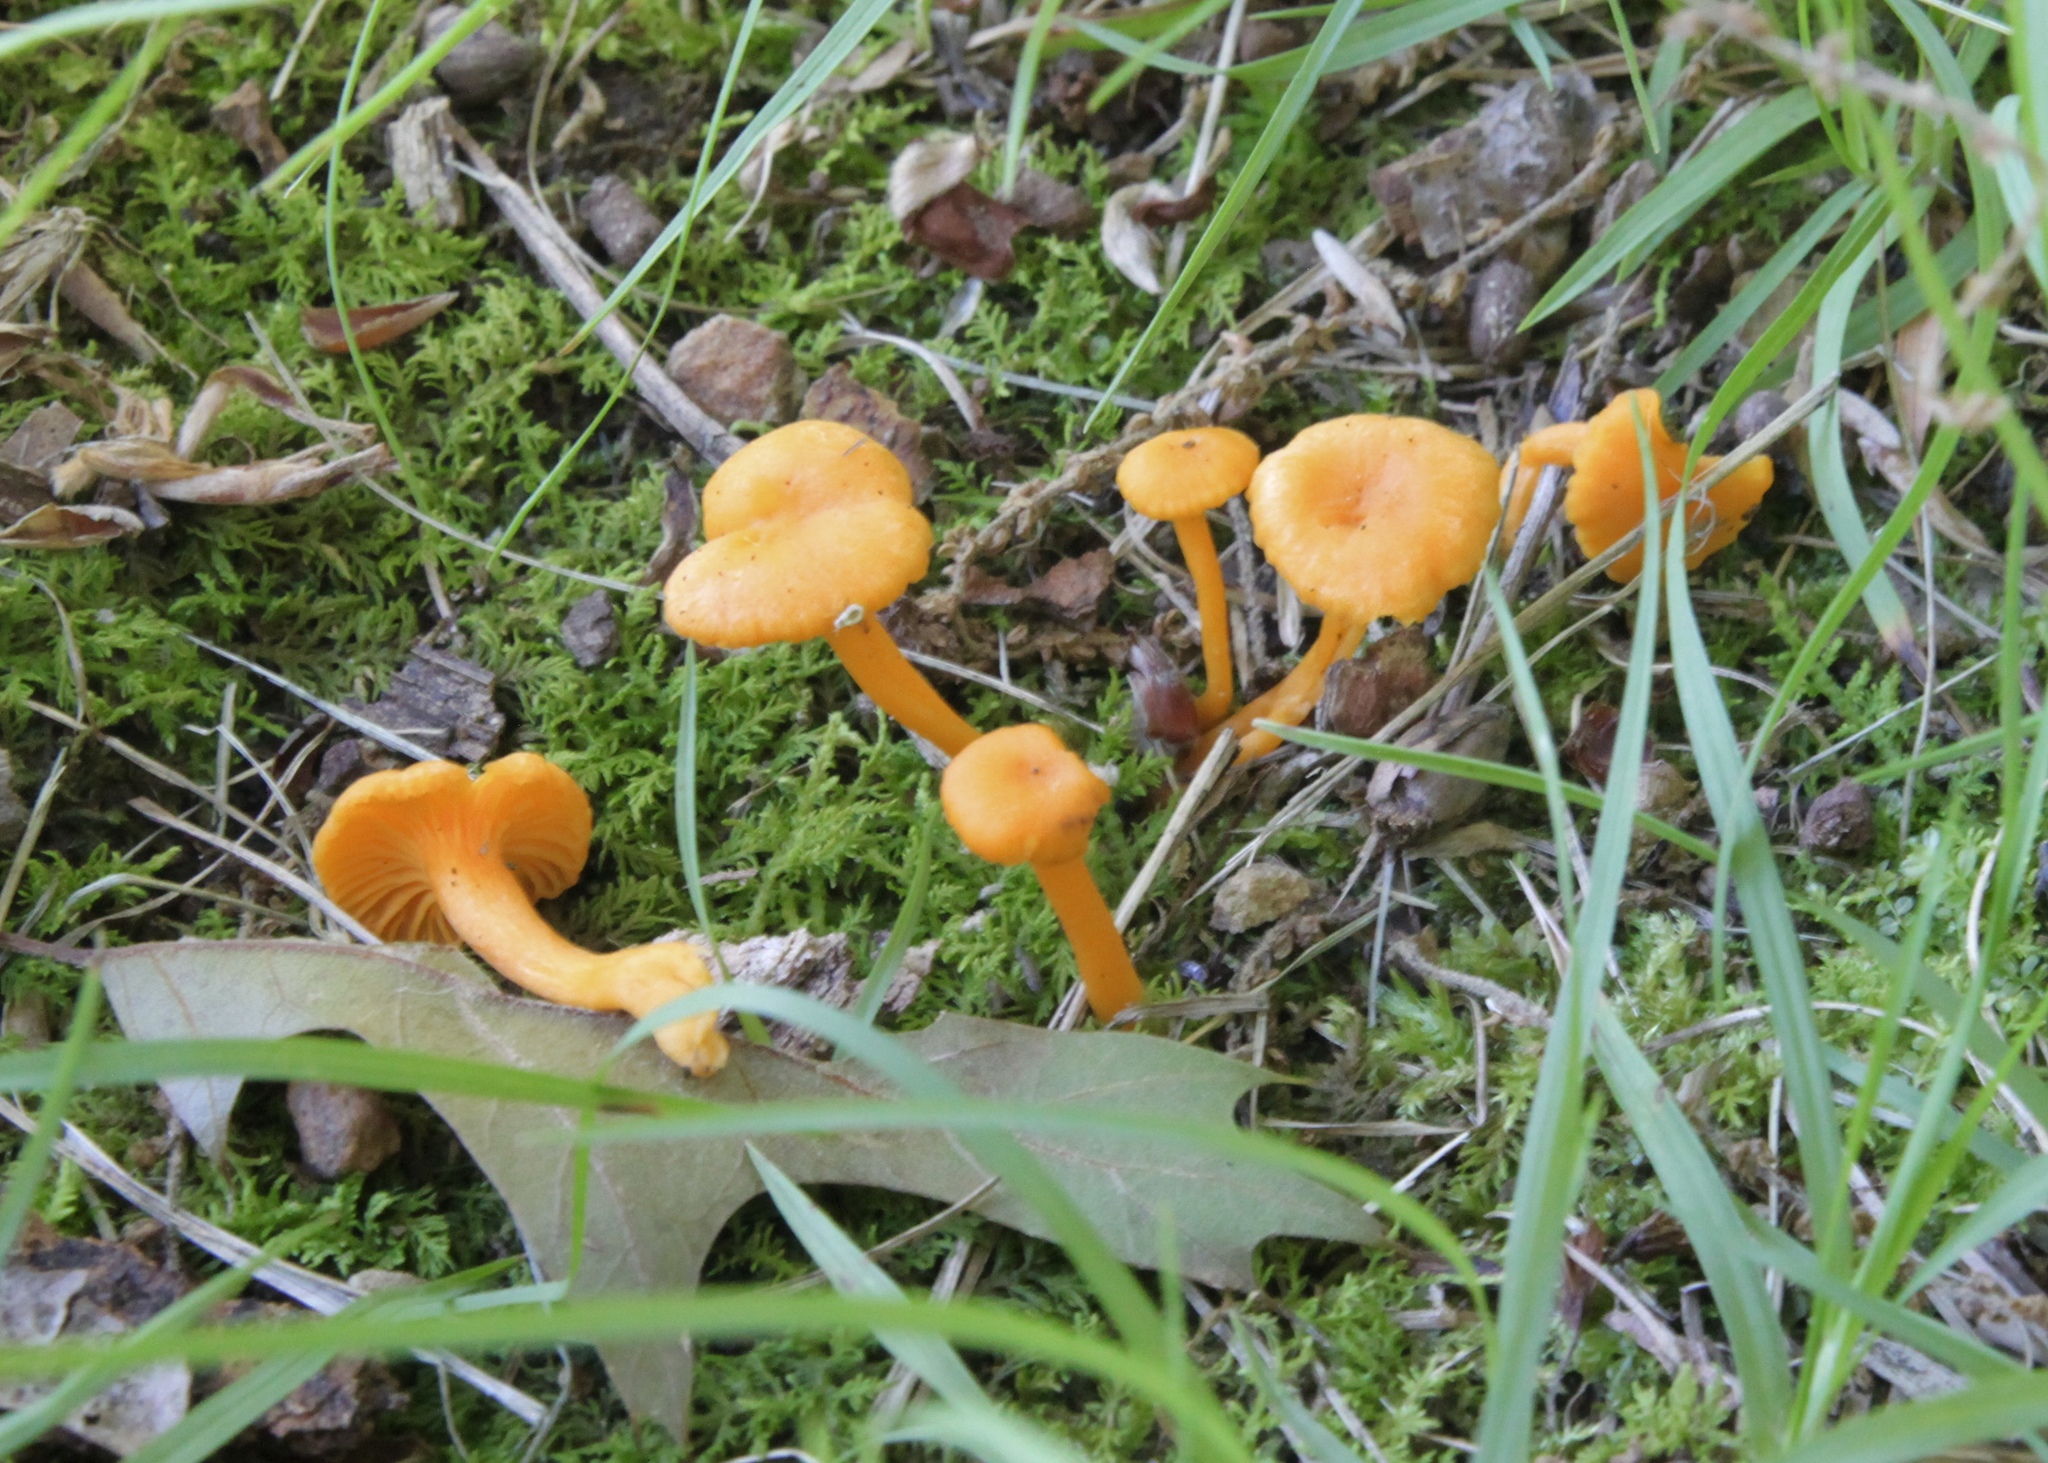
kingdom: Fungi
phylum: Basidiomycota
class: Agaricomycetes
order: Cantharellales
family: Hydnaceae
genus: Cantharellus
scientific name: Cantharellus minor
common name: Small chanterelle
